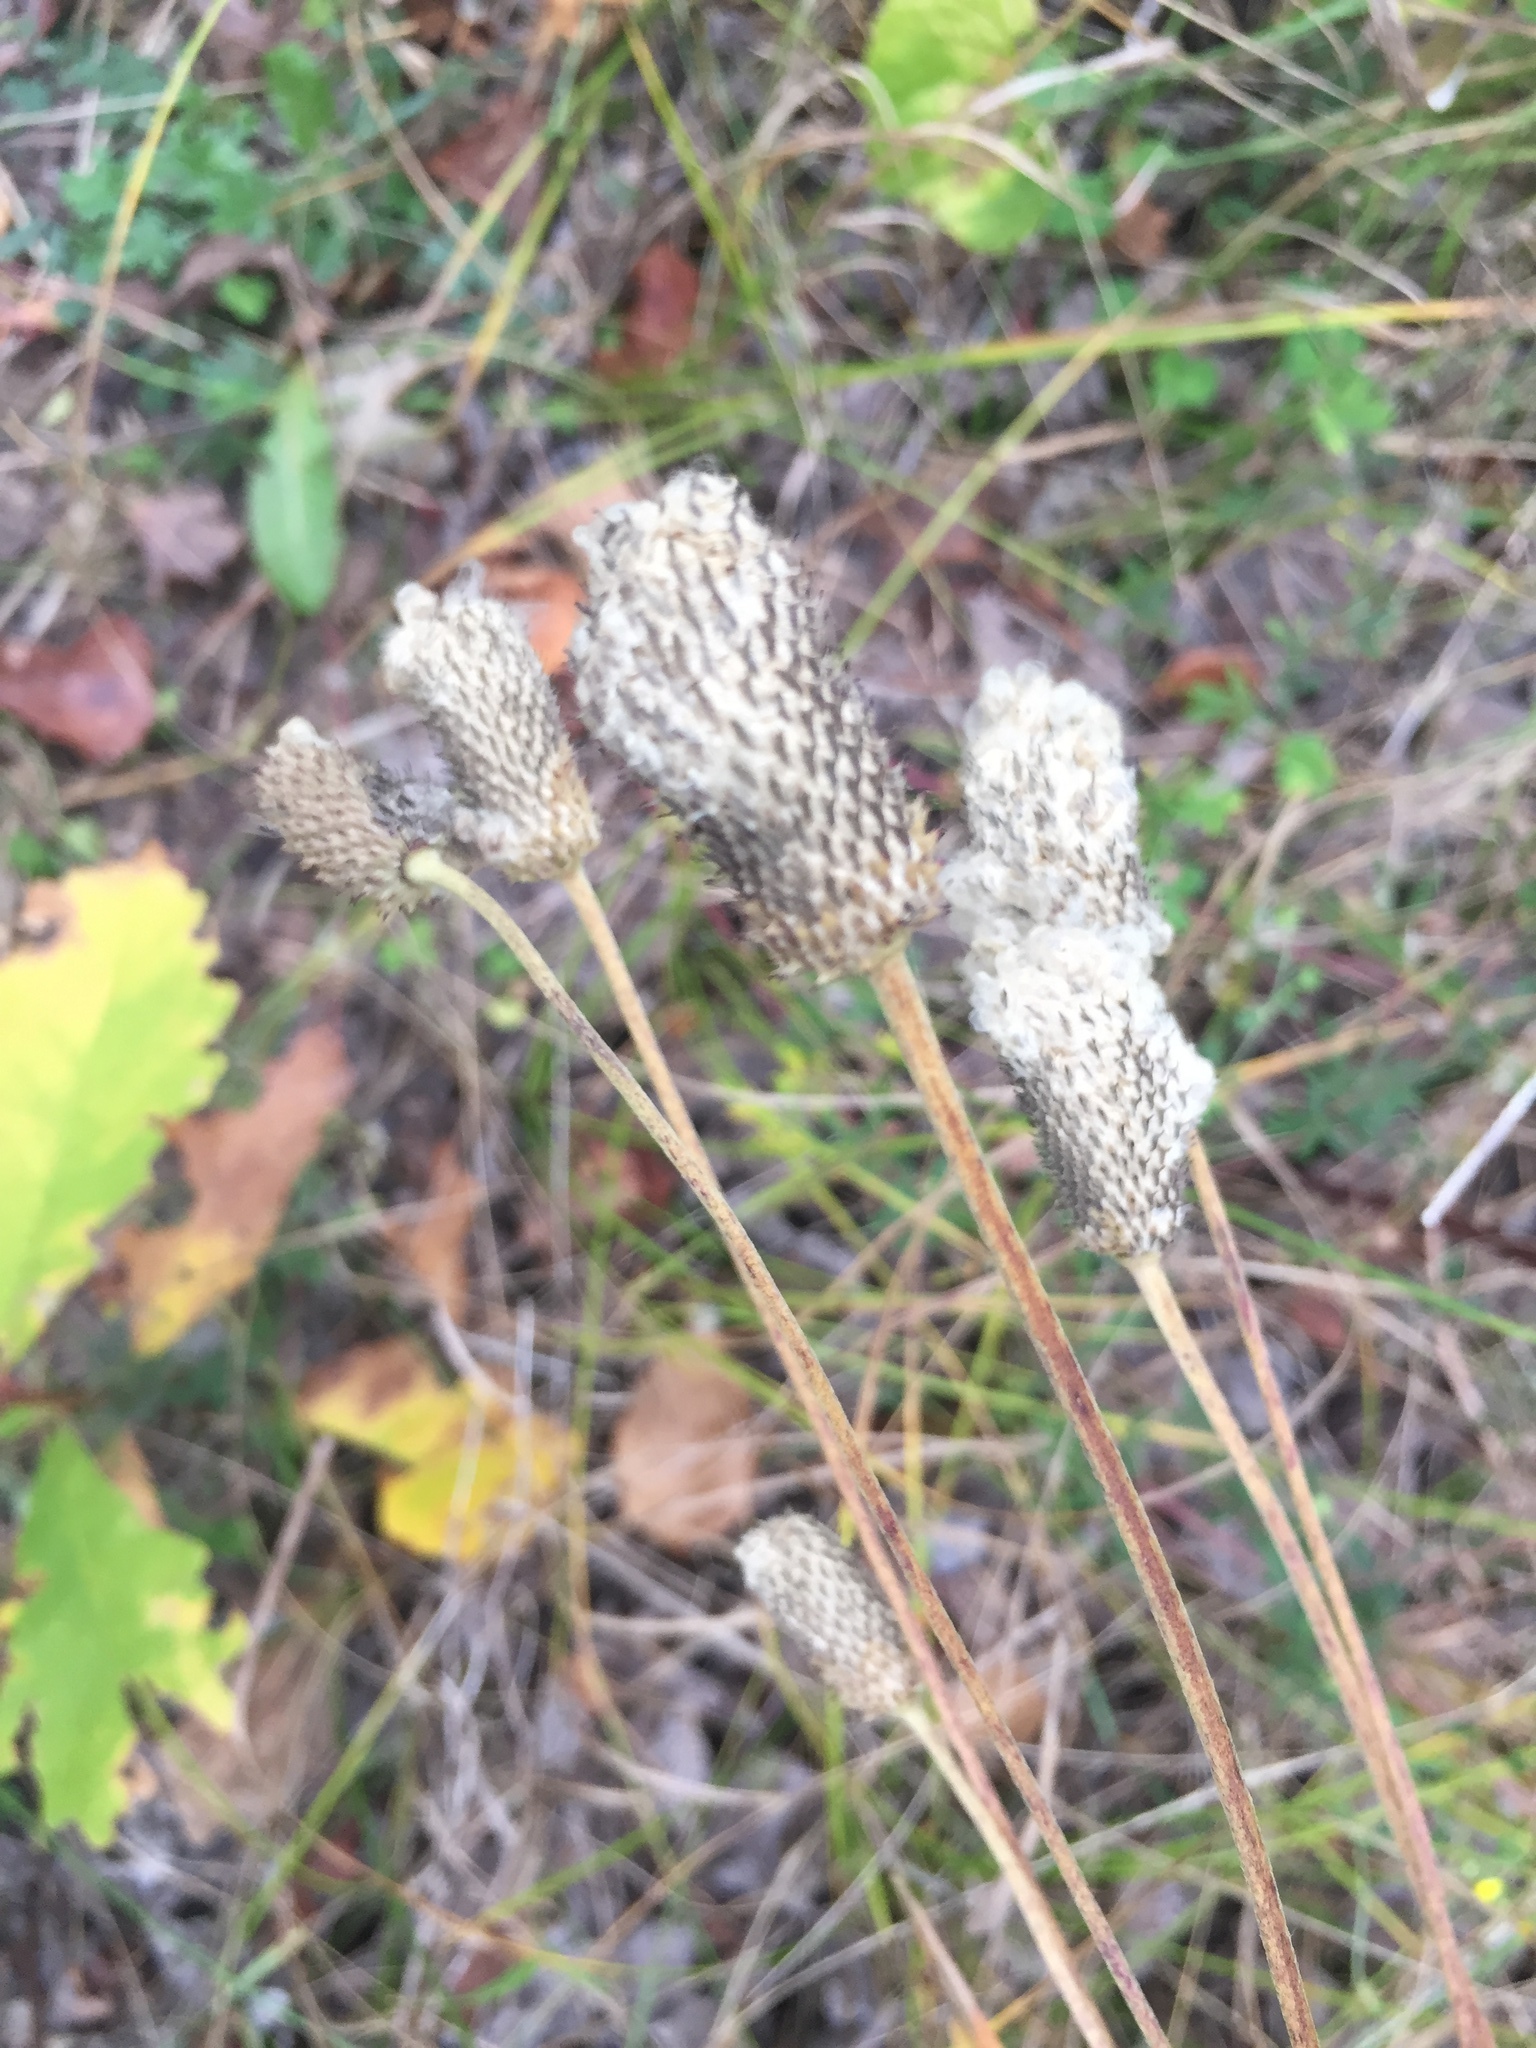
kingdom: Plantae
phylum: Tracheophyta
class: Magnoliopsida
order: Ranunculales
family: Ranunculaceae
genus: Anemone
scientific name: Anemone cylindrica
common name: Candle anemone
